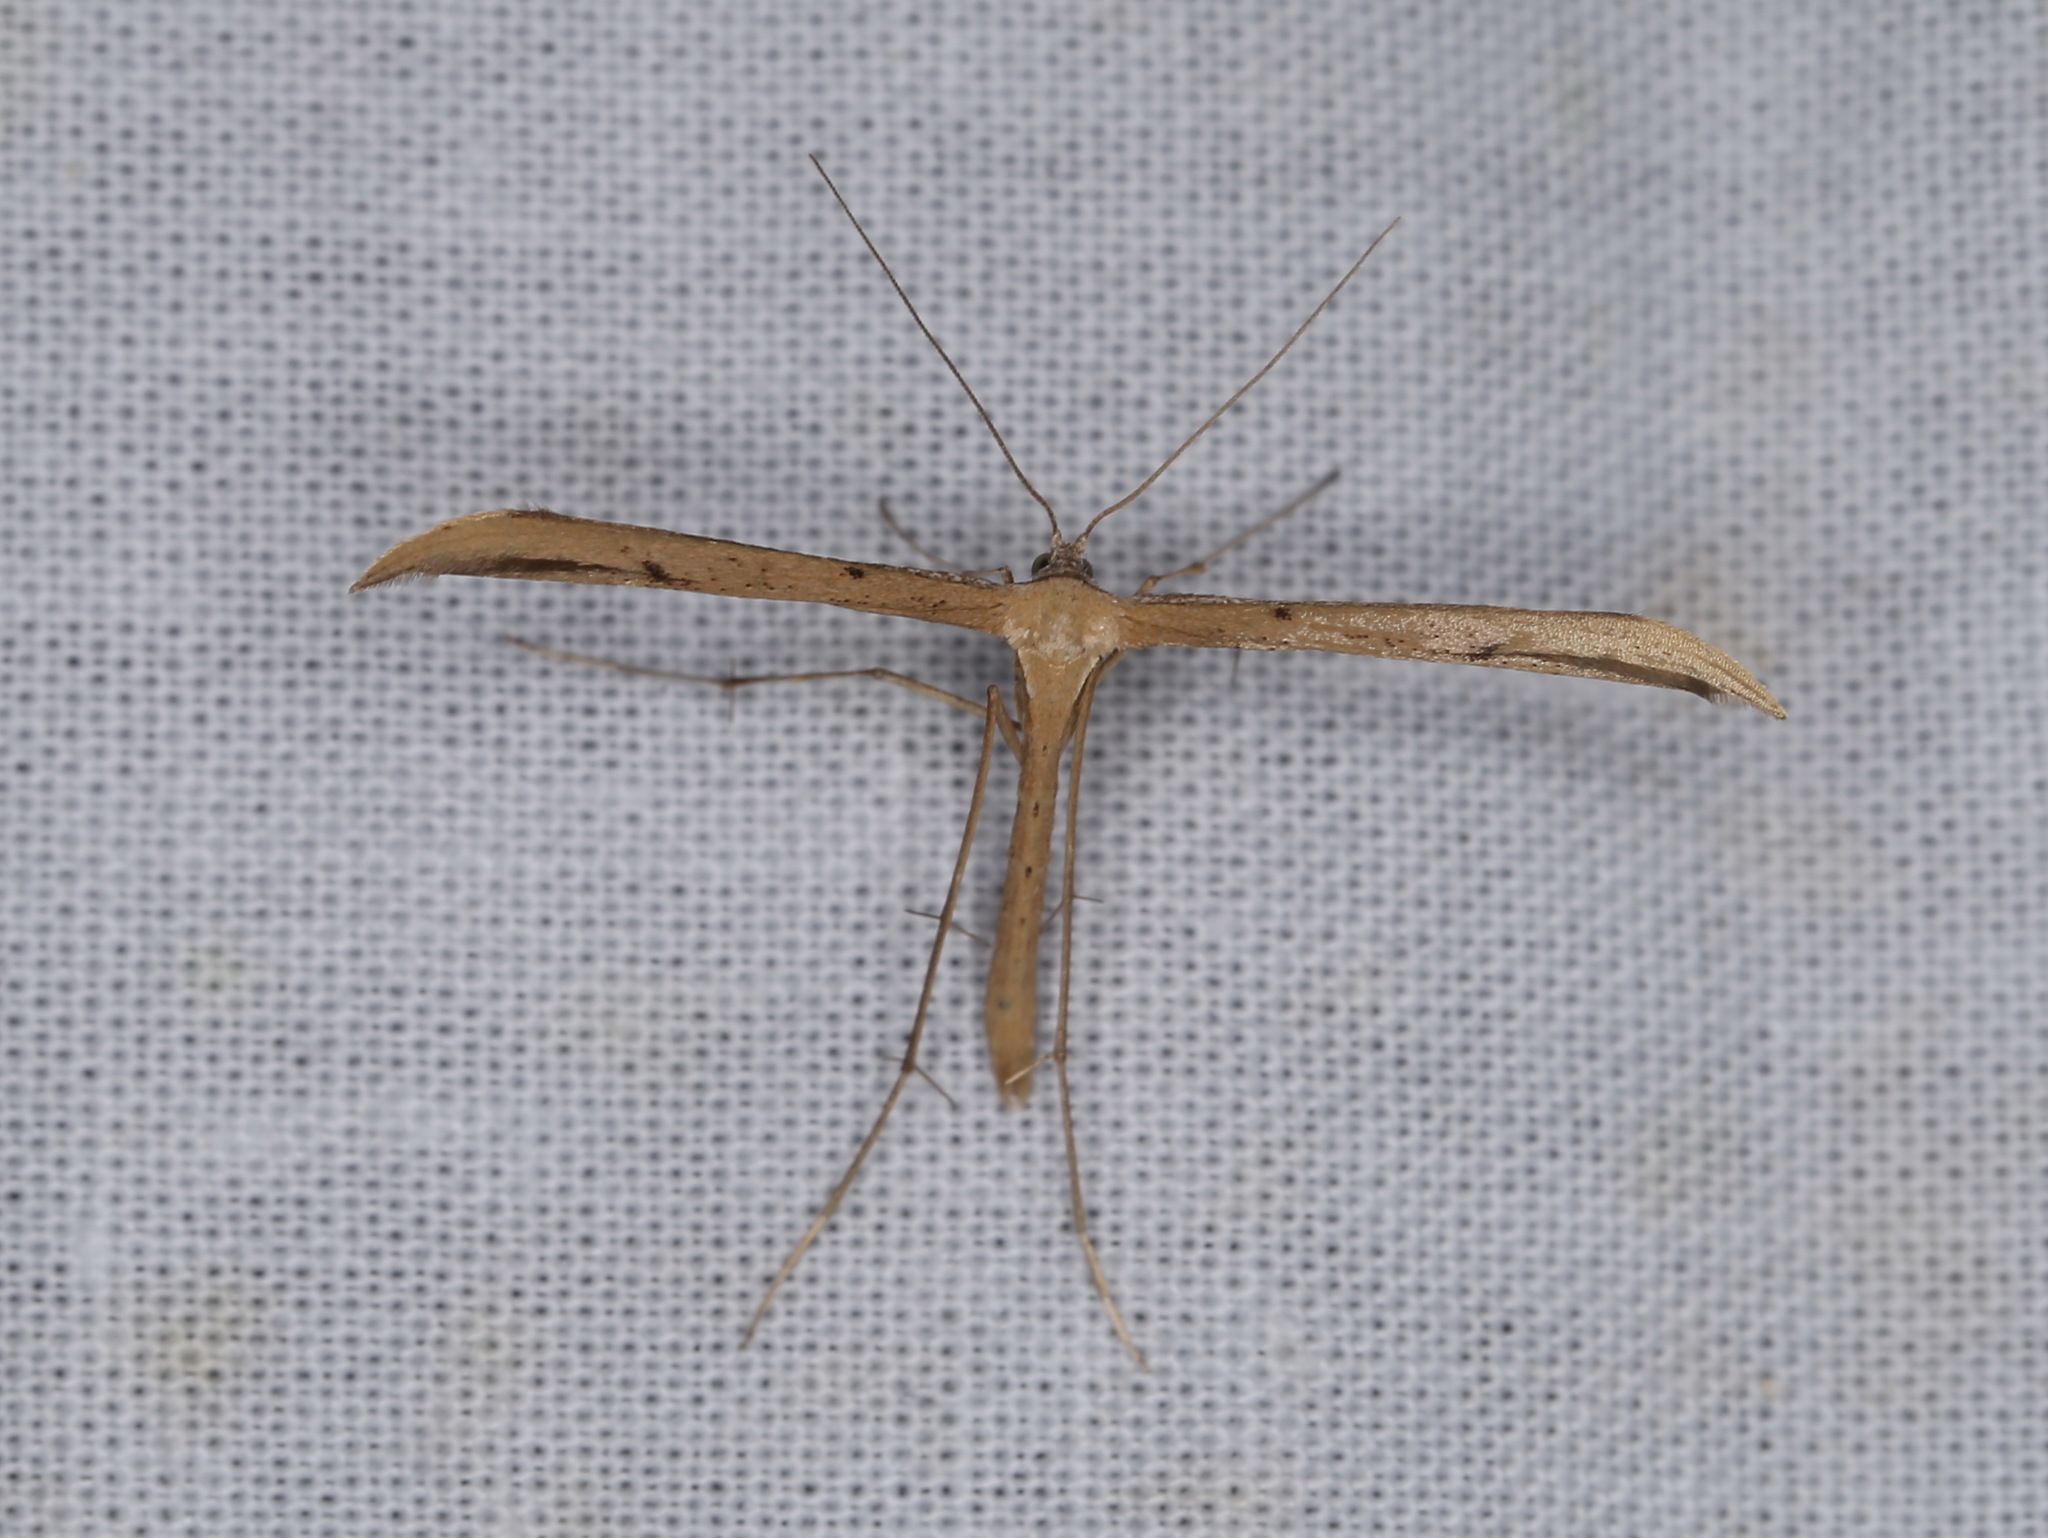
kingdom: Animalia
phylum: Arthropoda
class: Insecta
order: Lepidoptera
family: Pterophoridae
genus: Emmelina
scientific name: Emmelina monodactyla
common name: Common plume
